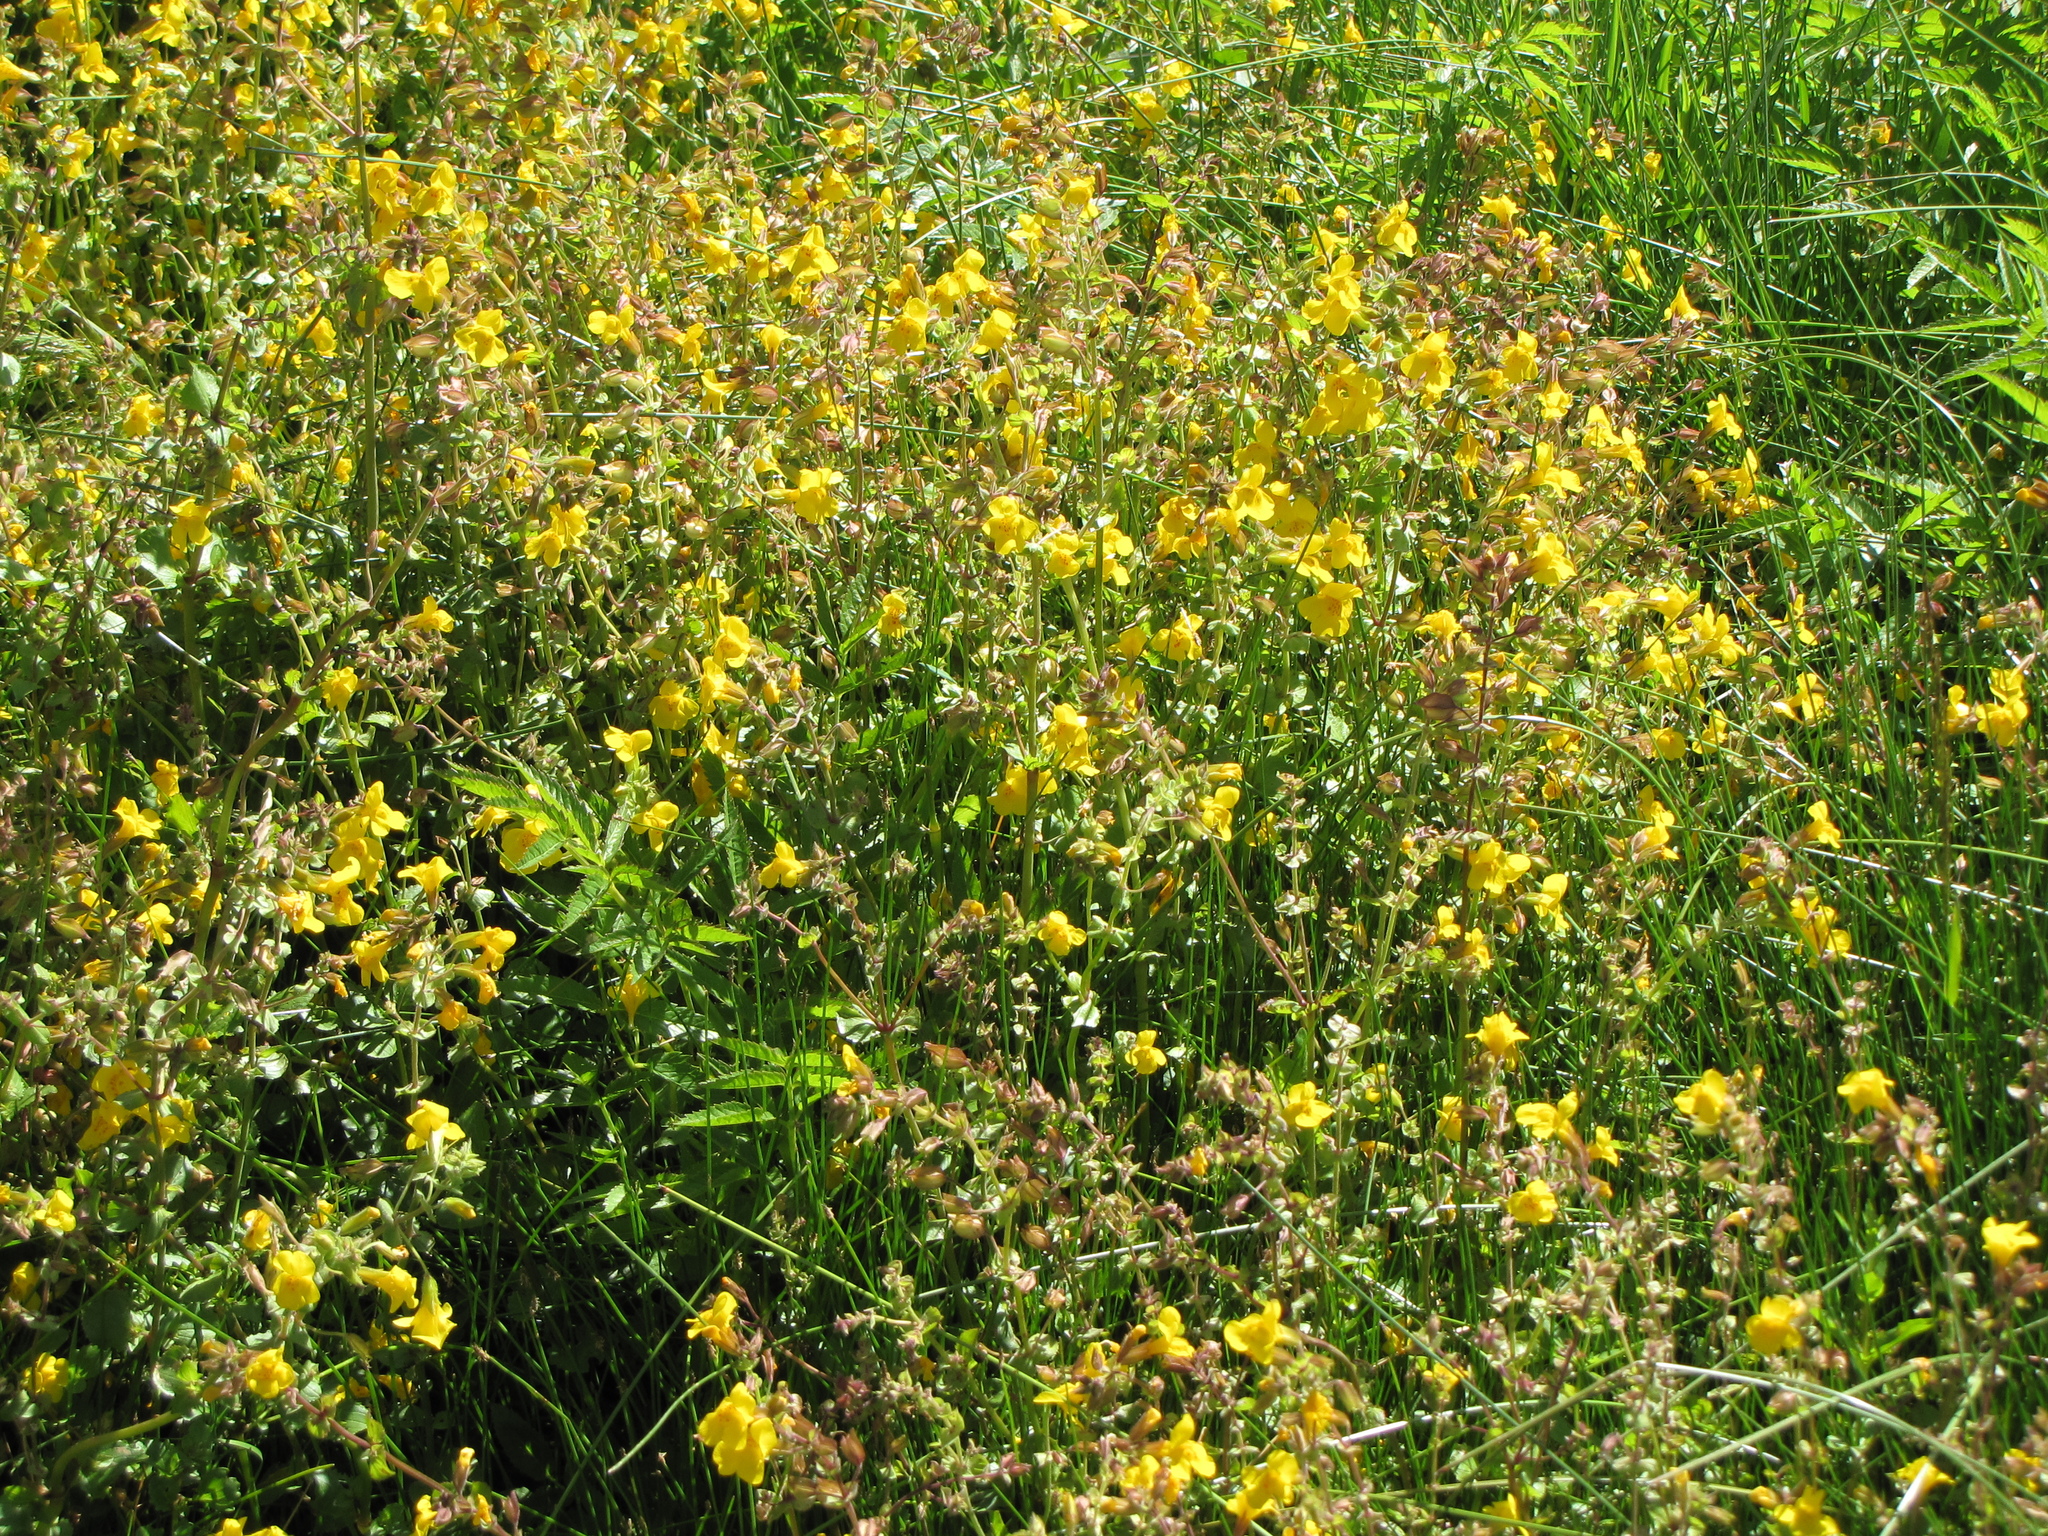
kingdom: Plantae
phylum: Tracheophyta
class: Magnoliopsida
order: Lamiales
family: Phrymaceae
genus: Erythranthe
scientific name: Erythranthe guttata
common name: Monkeyflower
